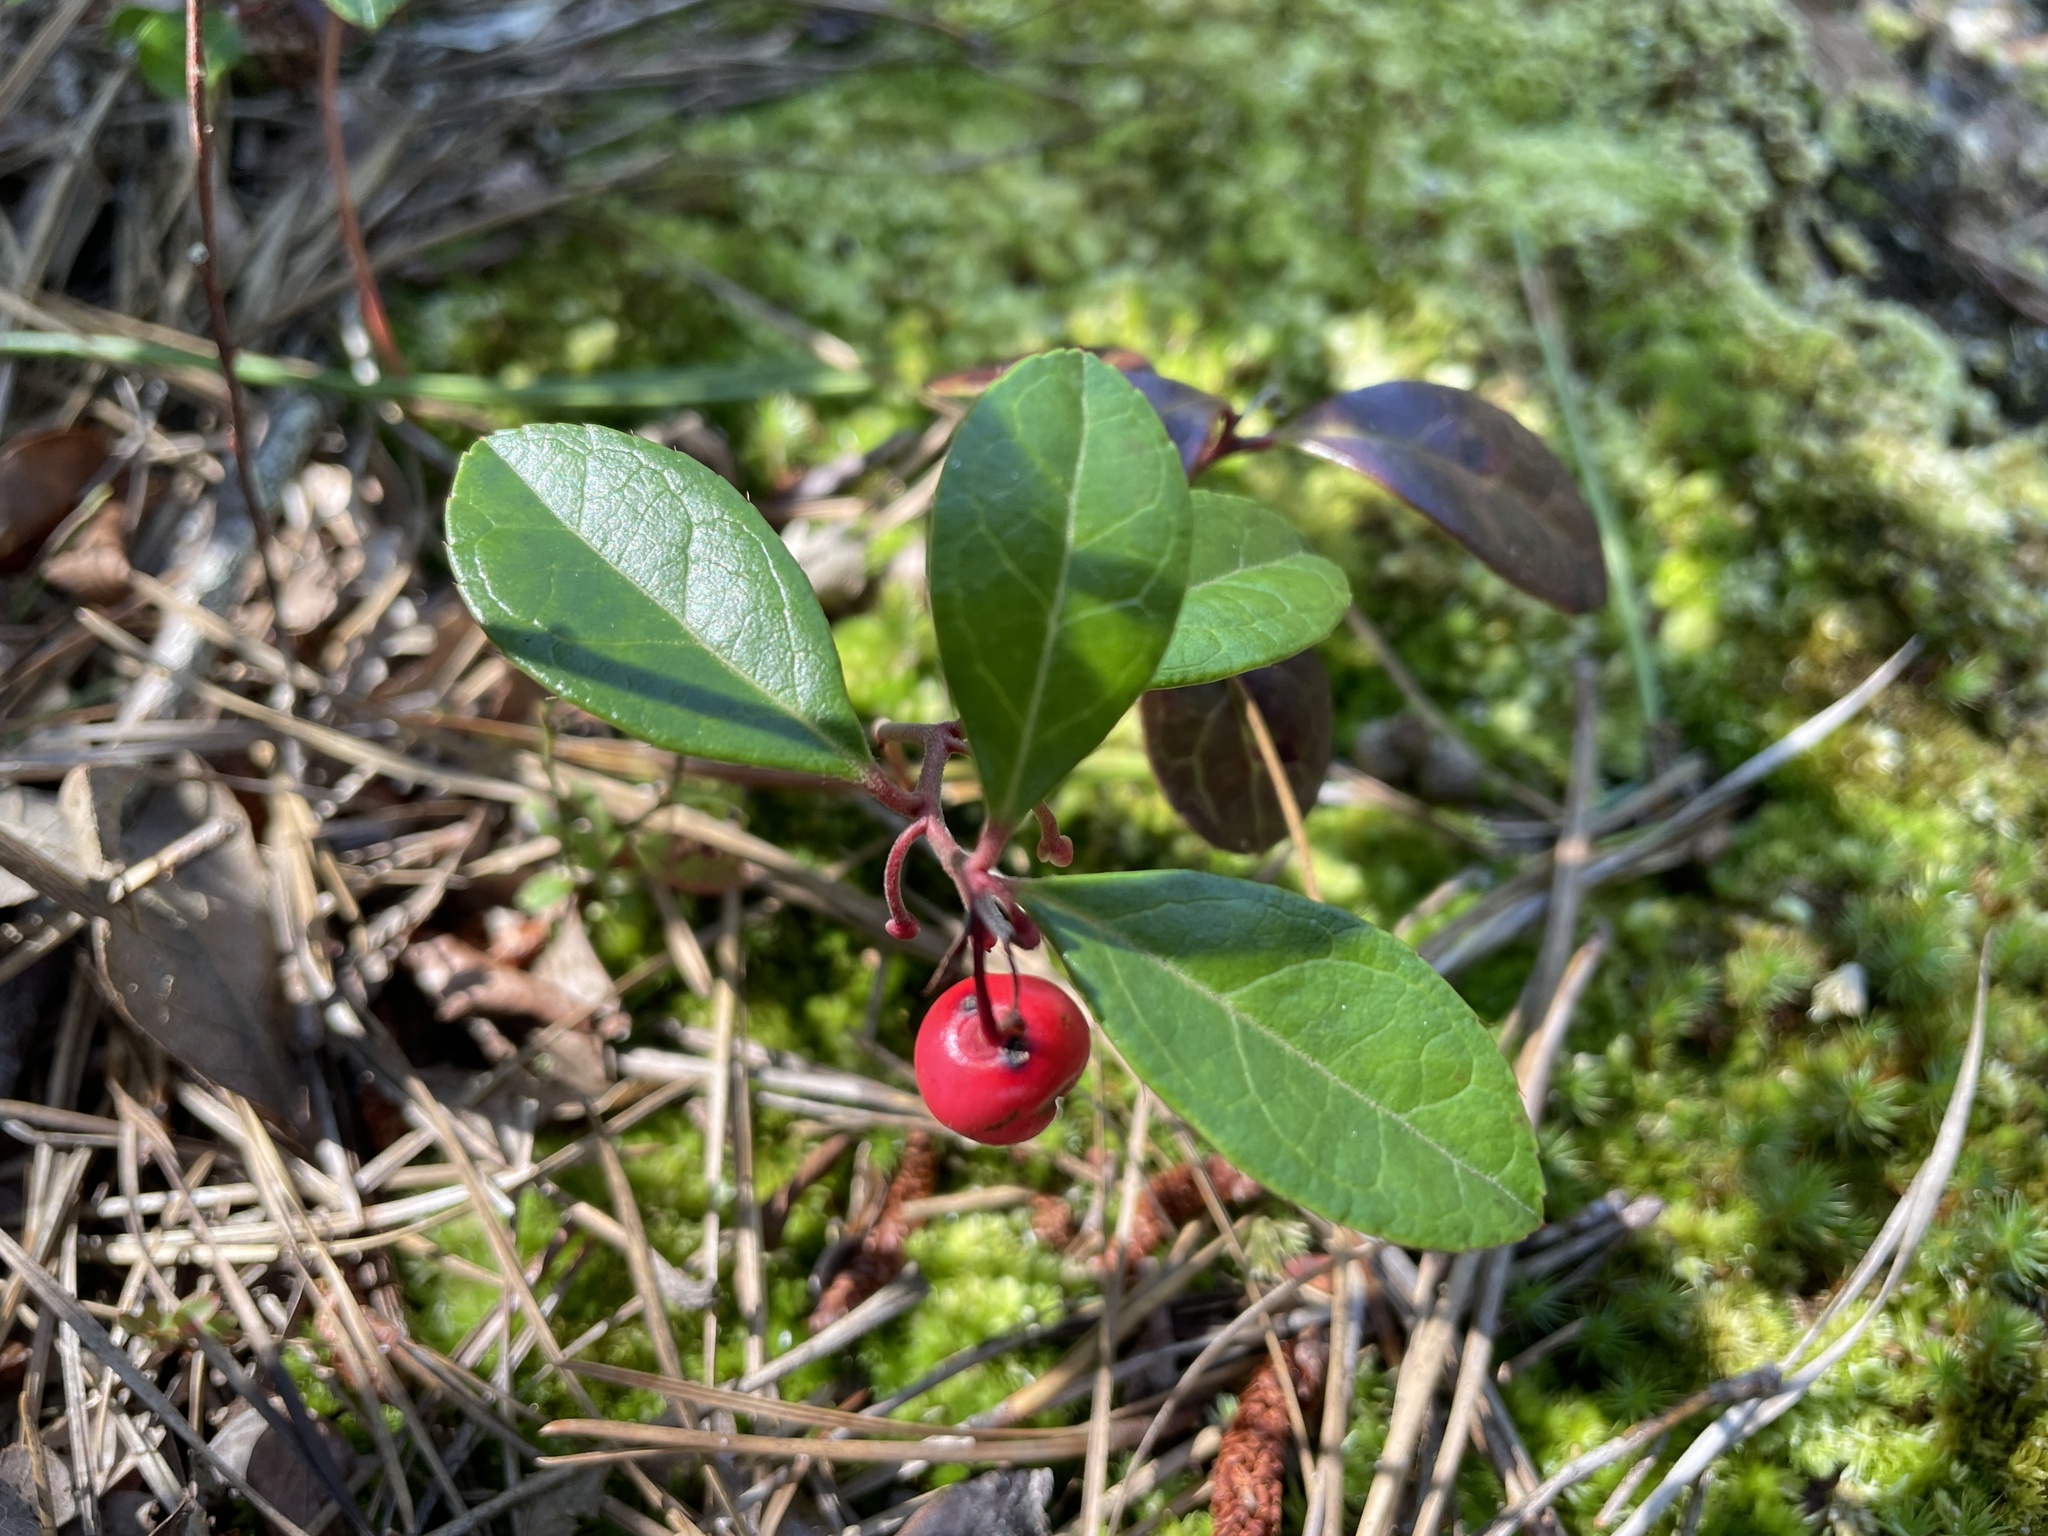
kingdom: Plantae
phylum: Tracheophyta
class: Magnoliopsida
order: Ericales
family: Ericaceae
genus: Gaultheria
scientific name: Gaultheria procumbens
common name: Checkerberry
